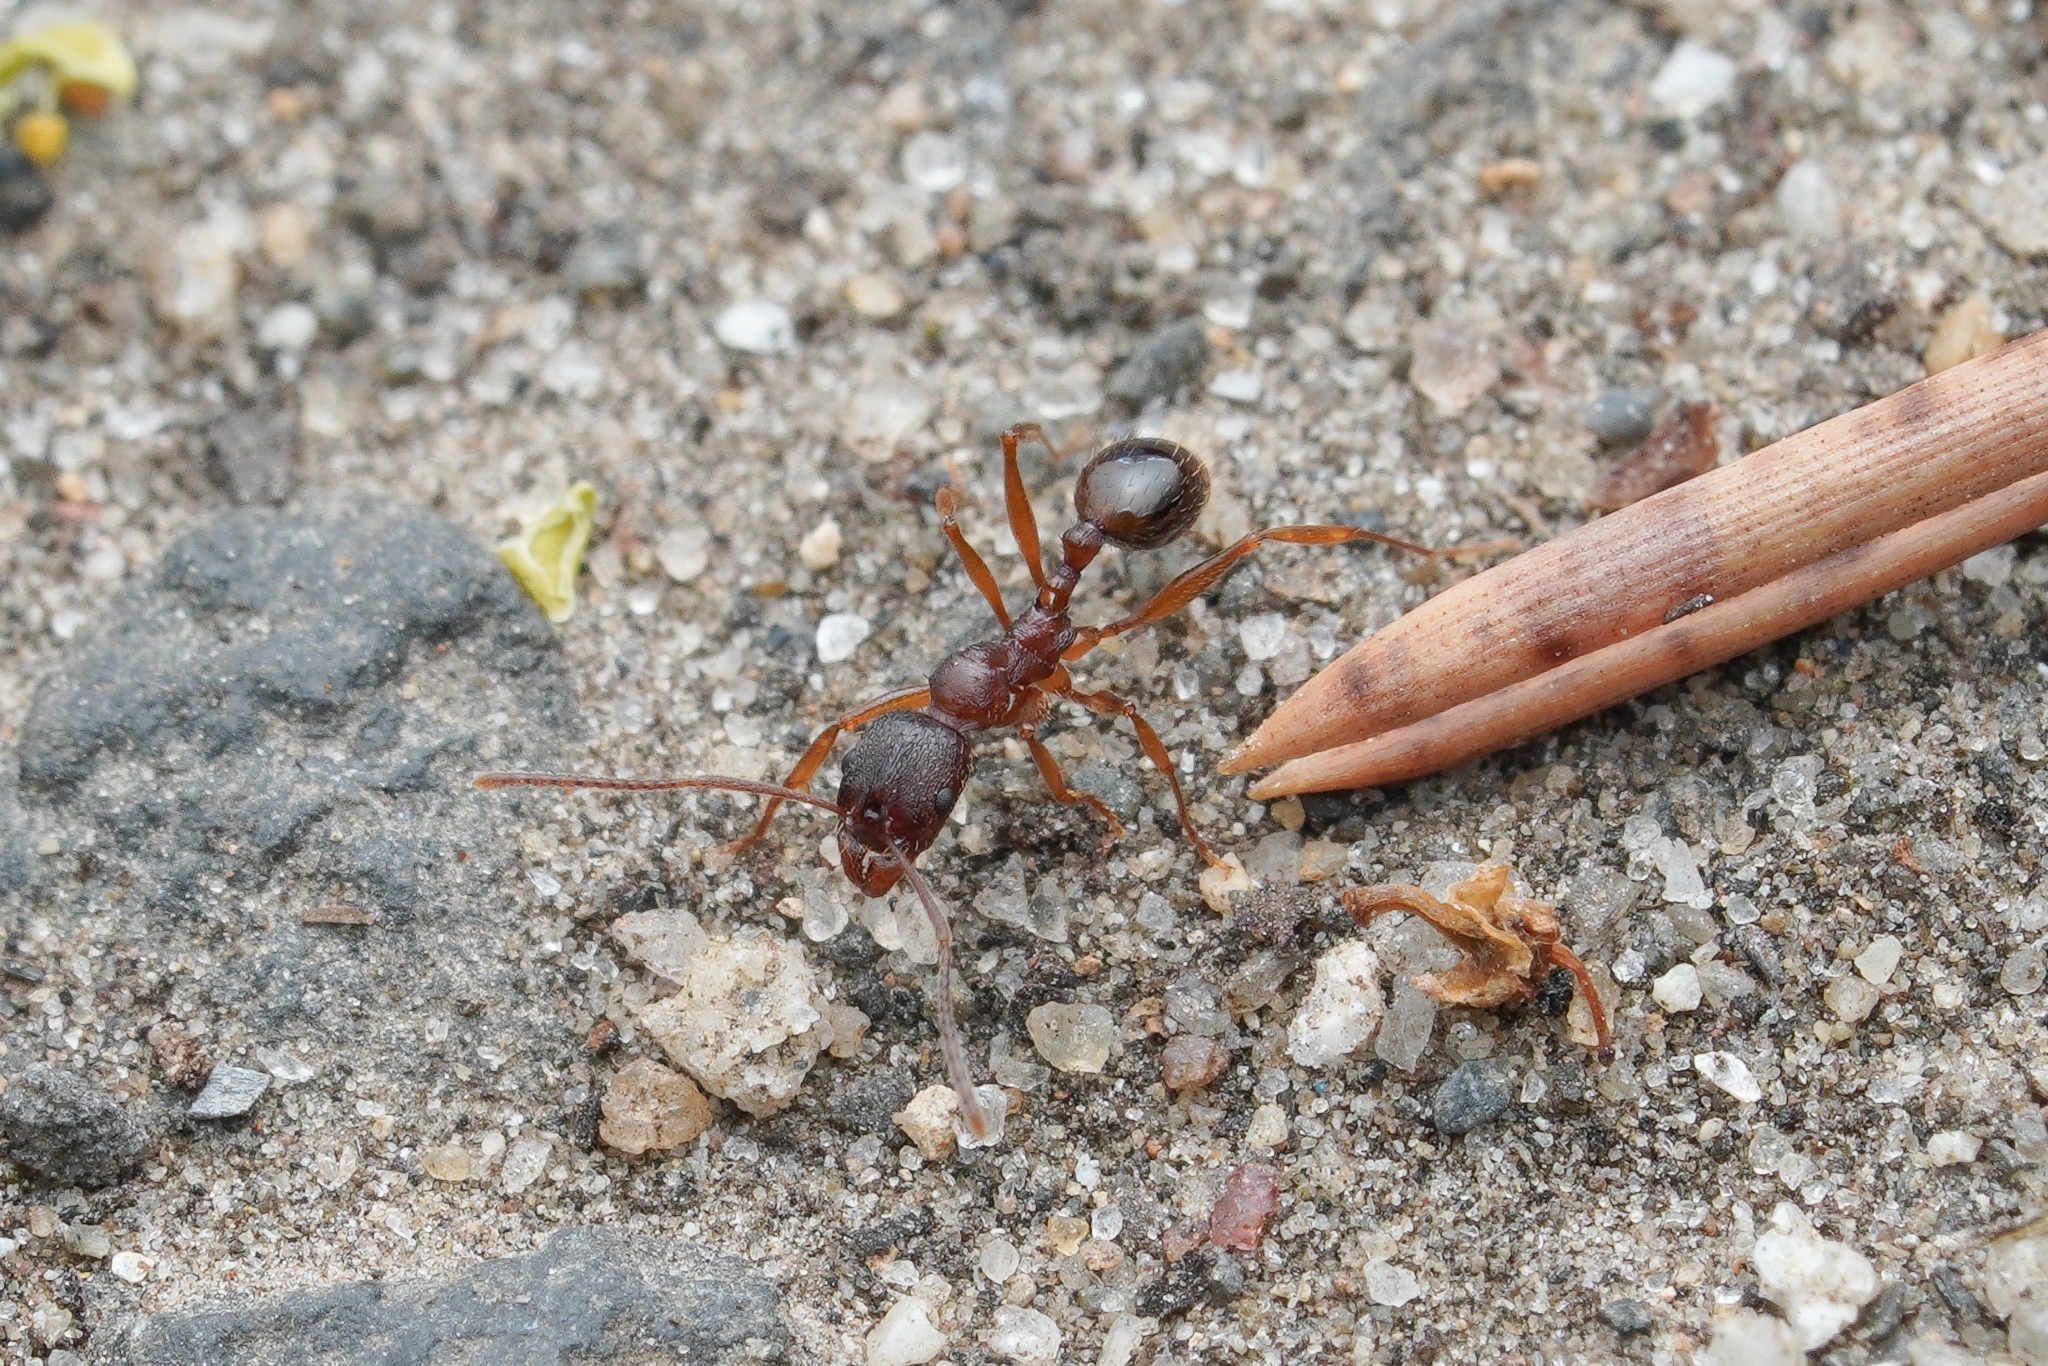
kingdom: Animalia
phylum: Arthropoda
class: Insecta
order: Hymenoptera
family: Formicidae
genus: Aphaenogaster
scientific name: Aphaenogaster rudis
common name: Winnow ant
